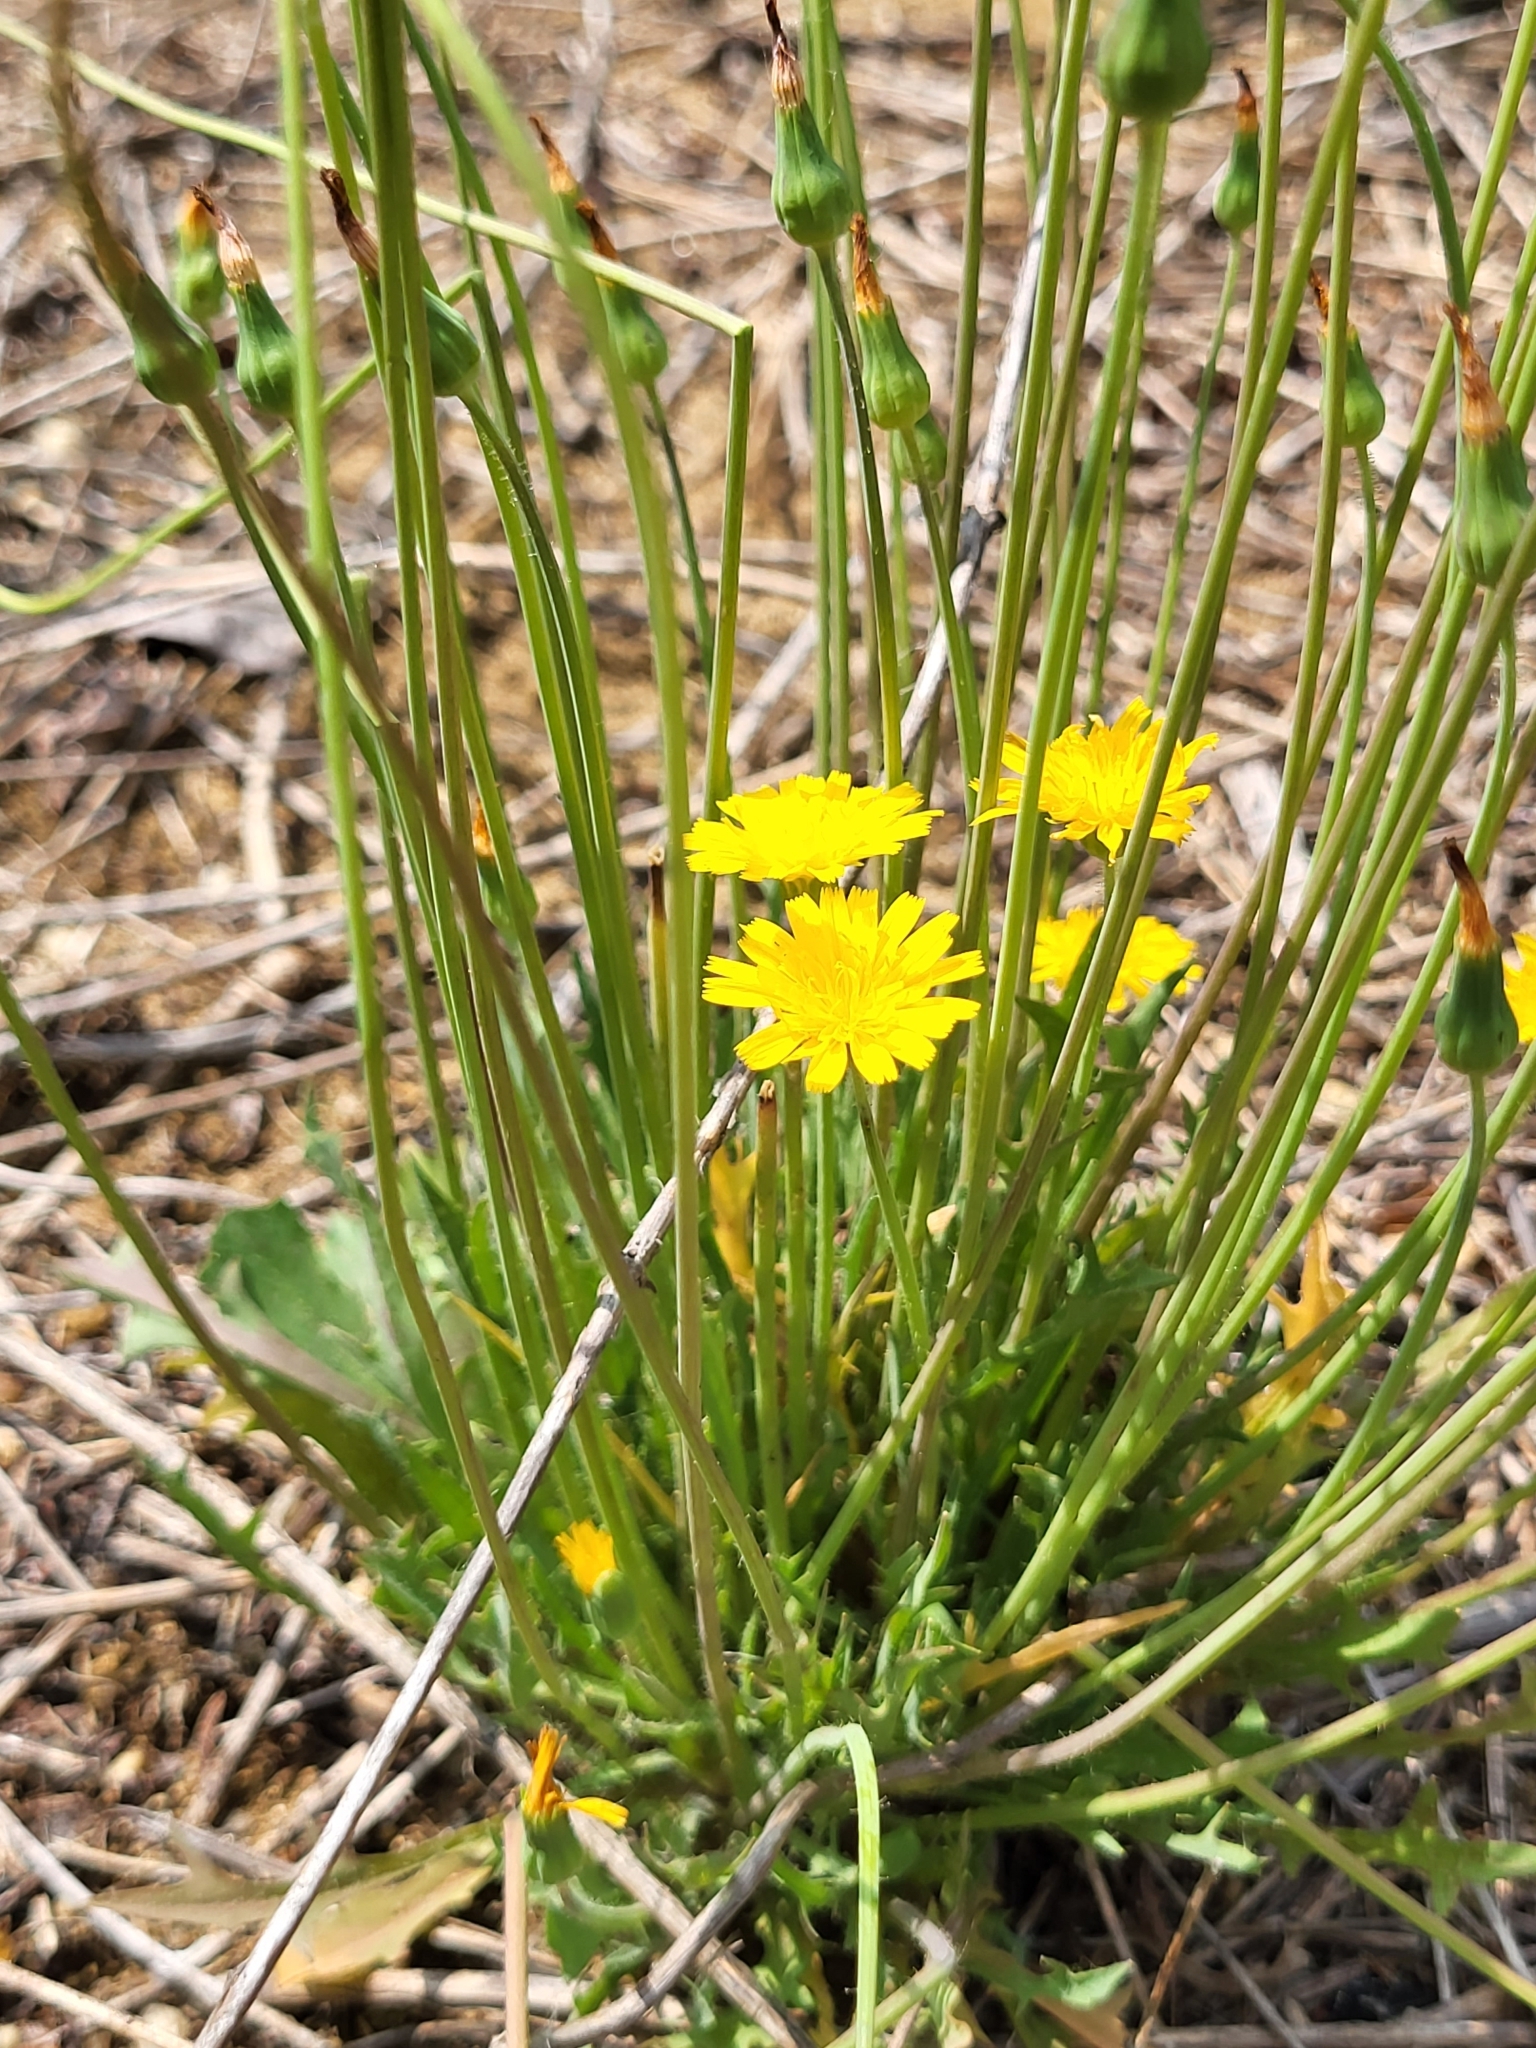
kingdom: Plantae
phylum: Tracheophyta
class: Magnoliopsida
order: Asterales
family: Asteraceae
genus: Krigia
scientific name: Krigia virginica
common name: Virginia dwarf-dandelion
